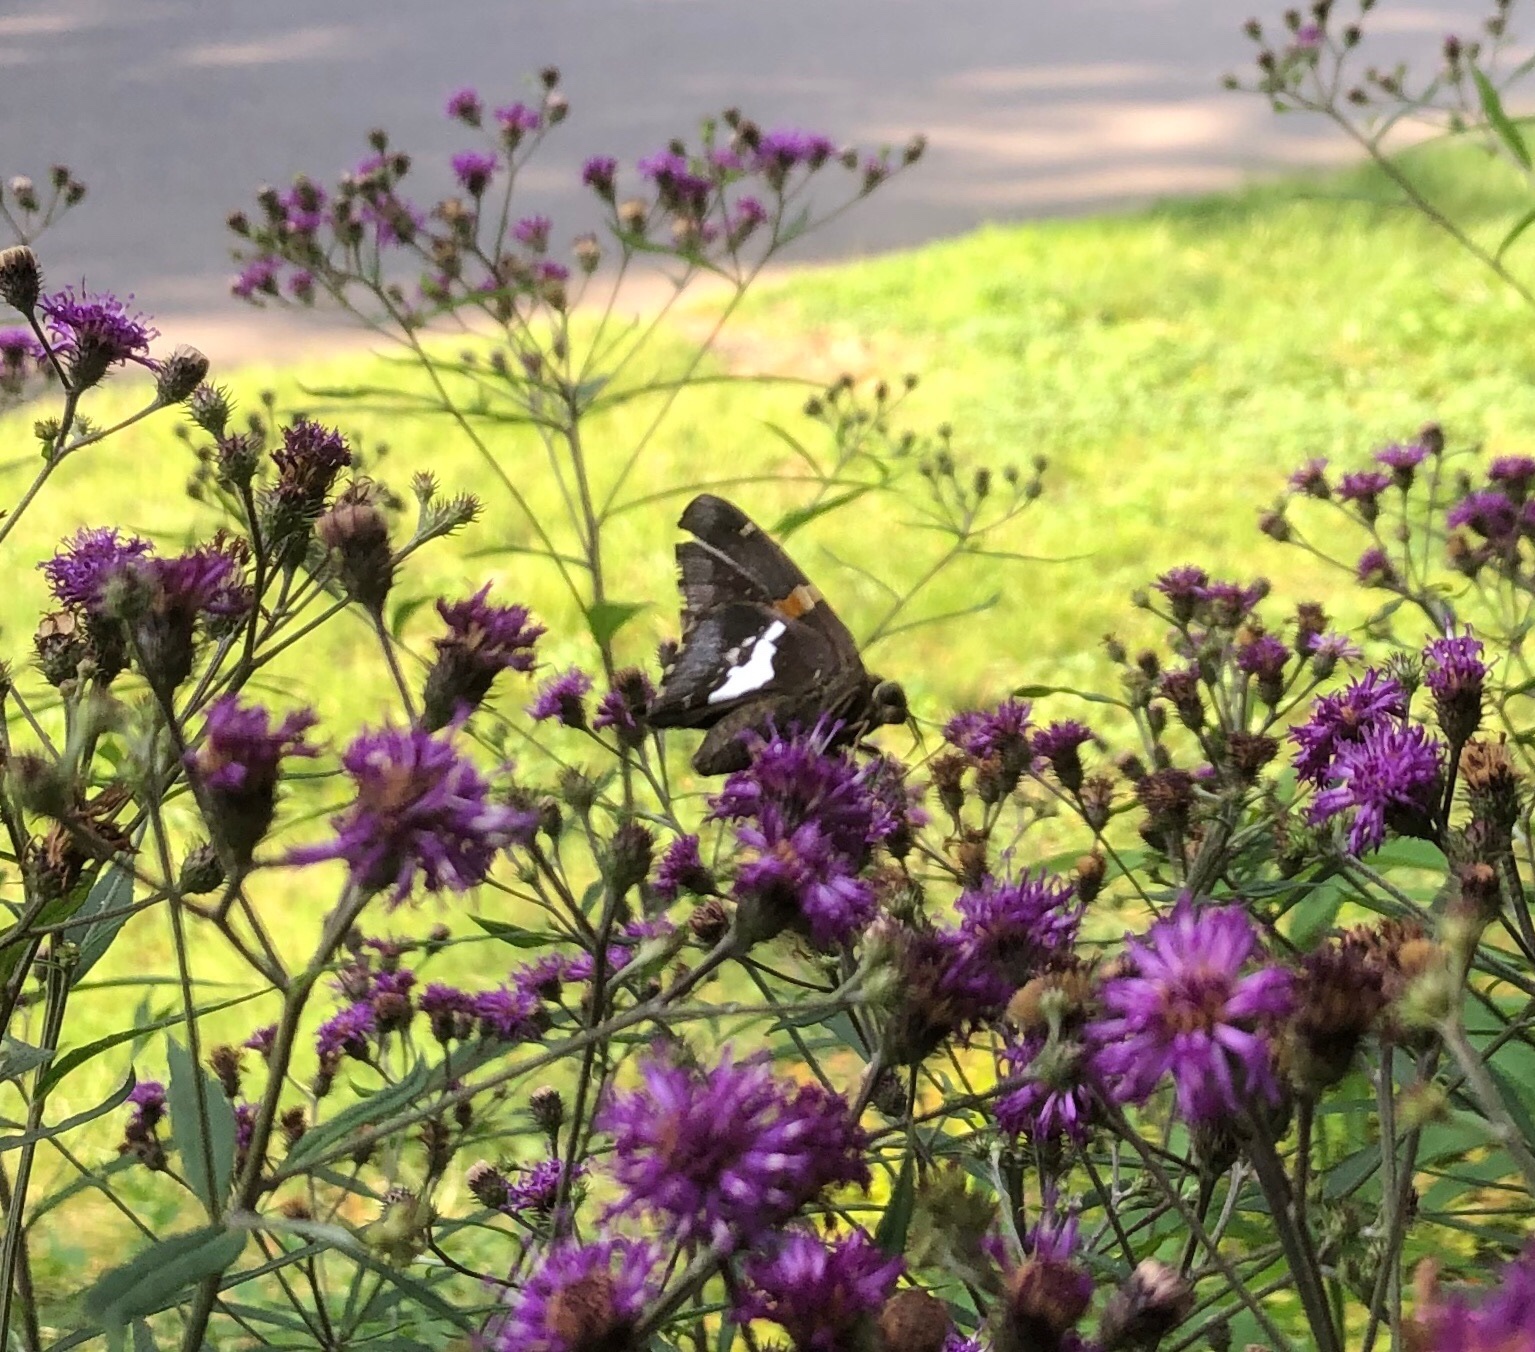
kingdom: Animalia
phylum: Arthropoda
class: Insecta
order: Lepidoptera
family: Hesperiidae
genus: Epargyreus
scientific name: Epargyreus clarus
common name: Silver-spotted skipper
